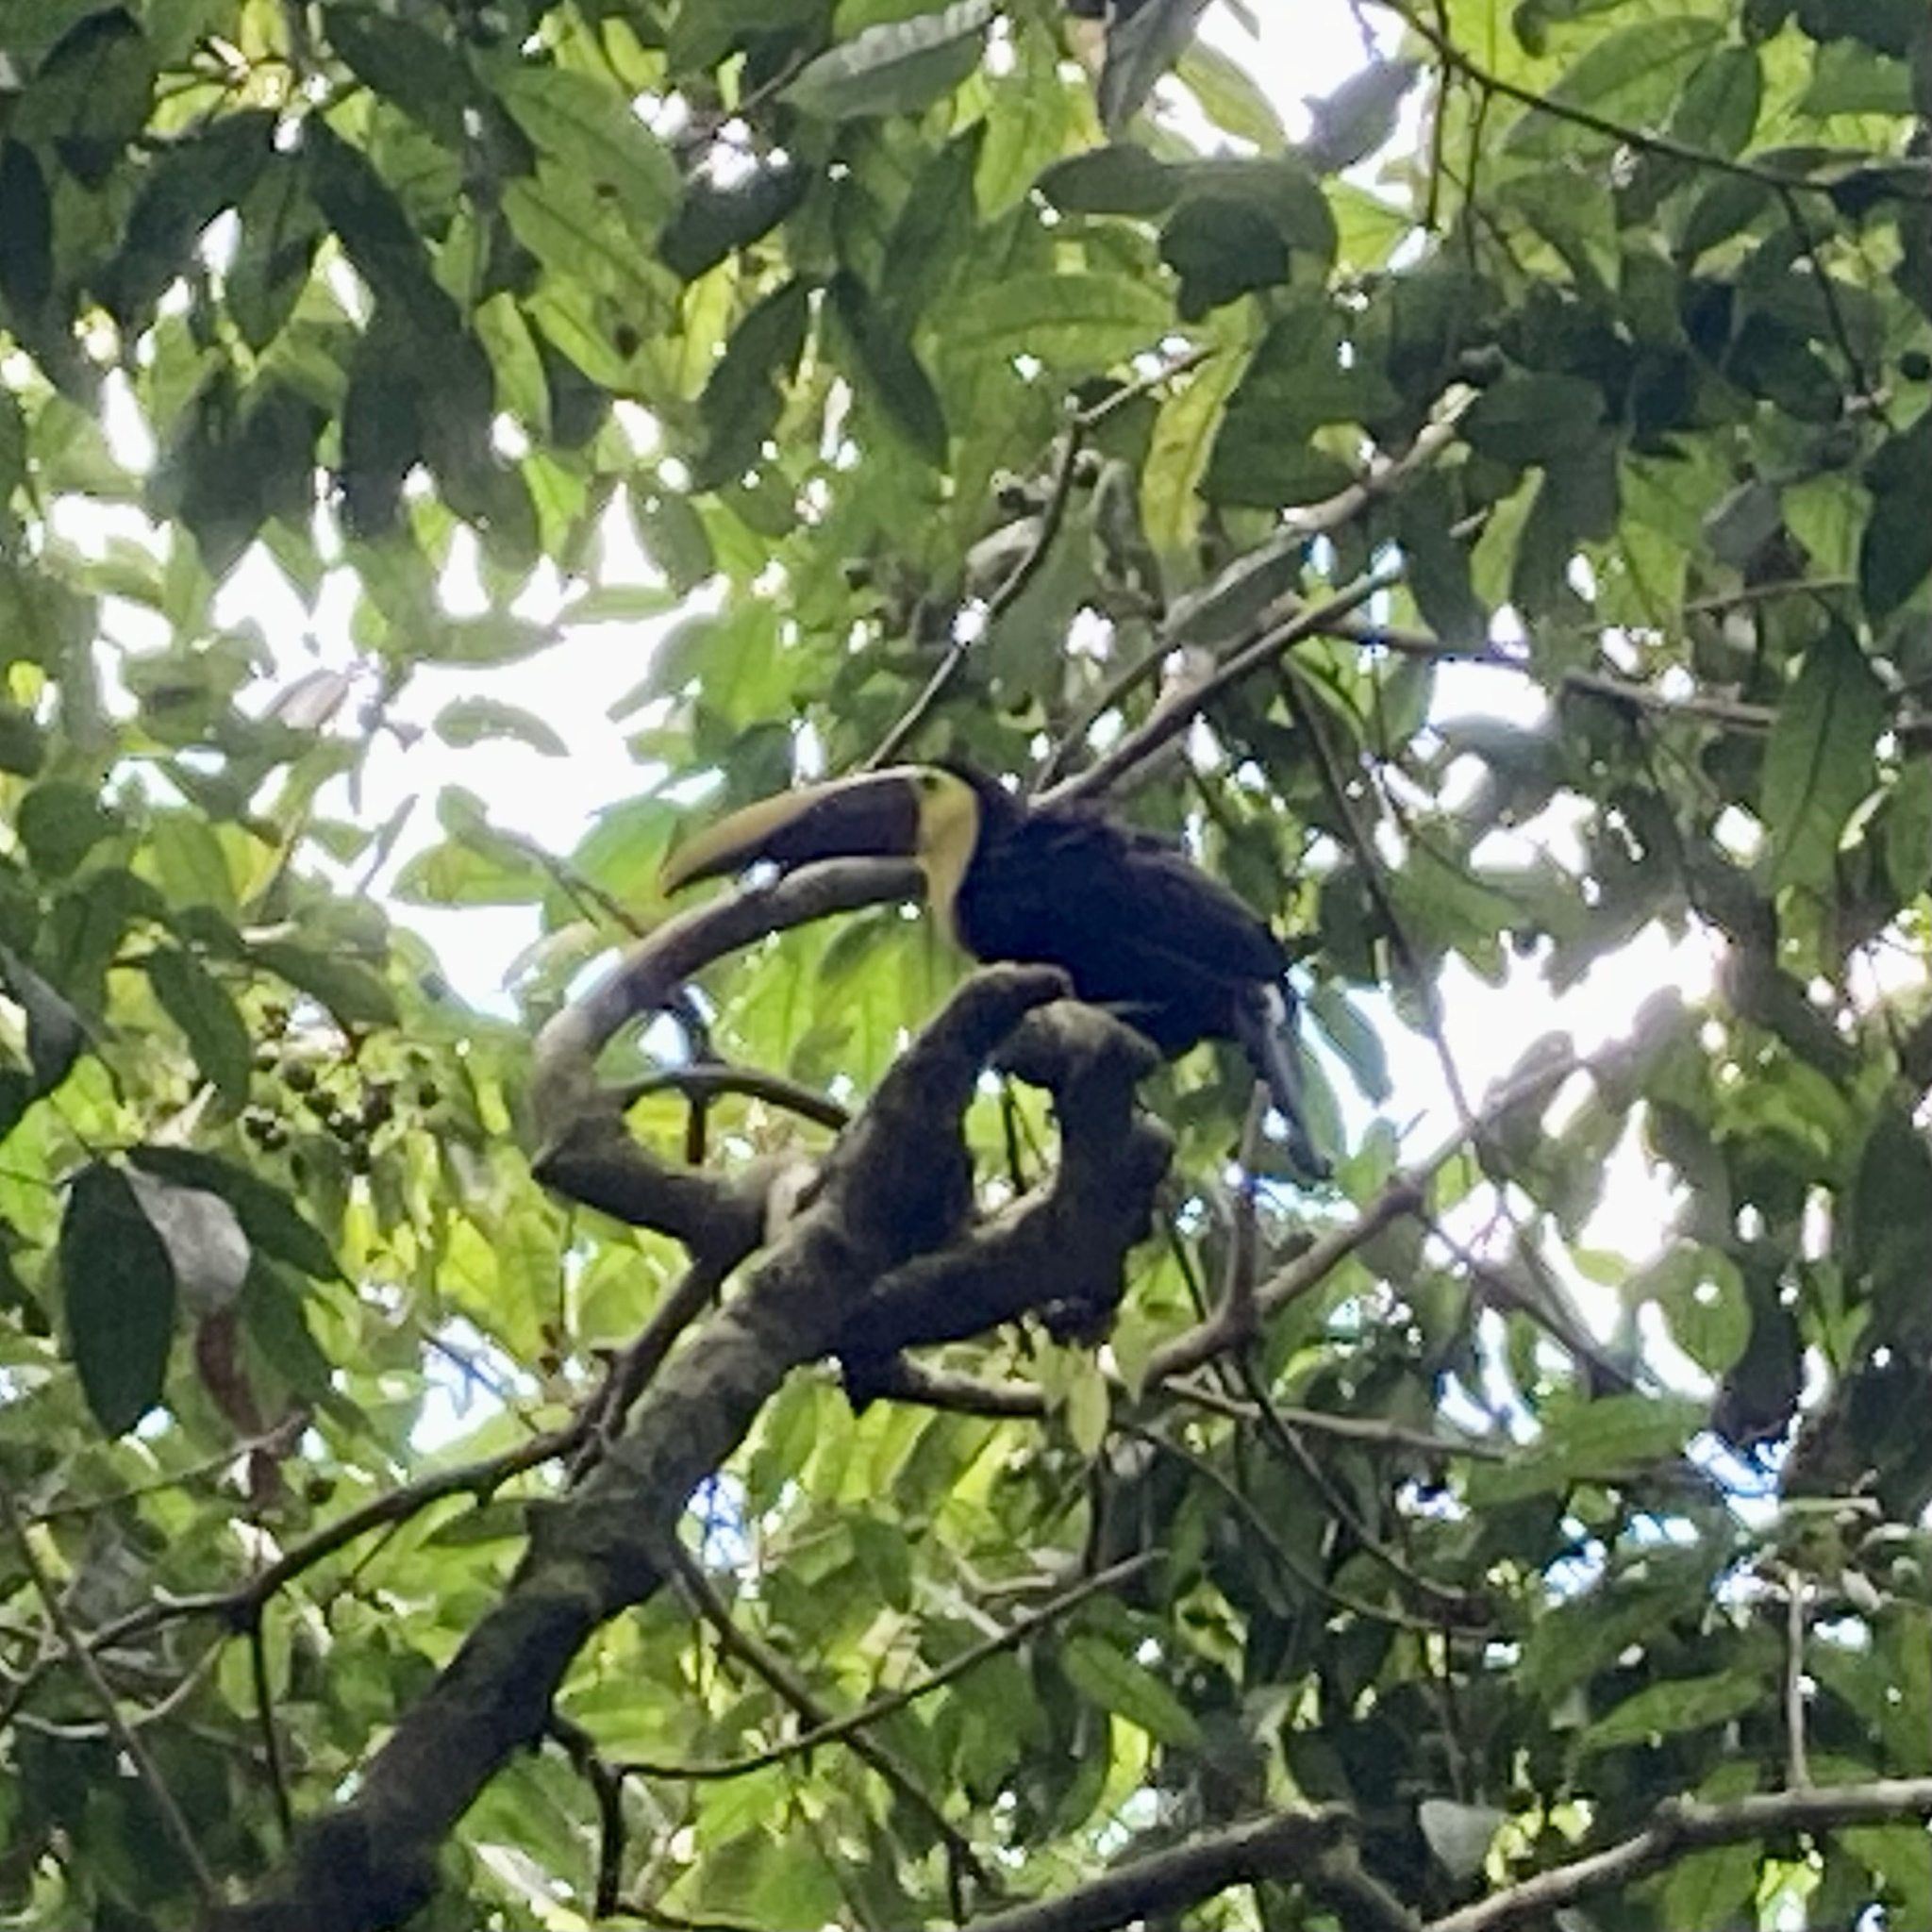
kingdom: Animalia
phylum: Chordata
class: Aves
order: Piciformes
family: Ramphastidae
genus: Ramphastos
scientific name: Ramphastos ambiguus
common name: Yellow-throated toucan
